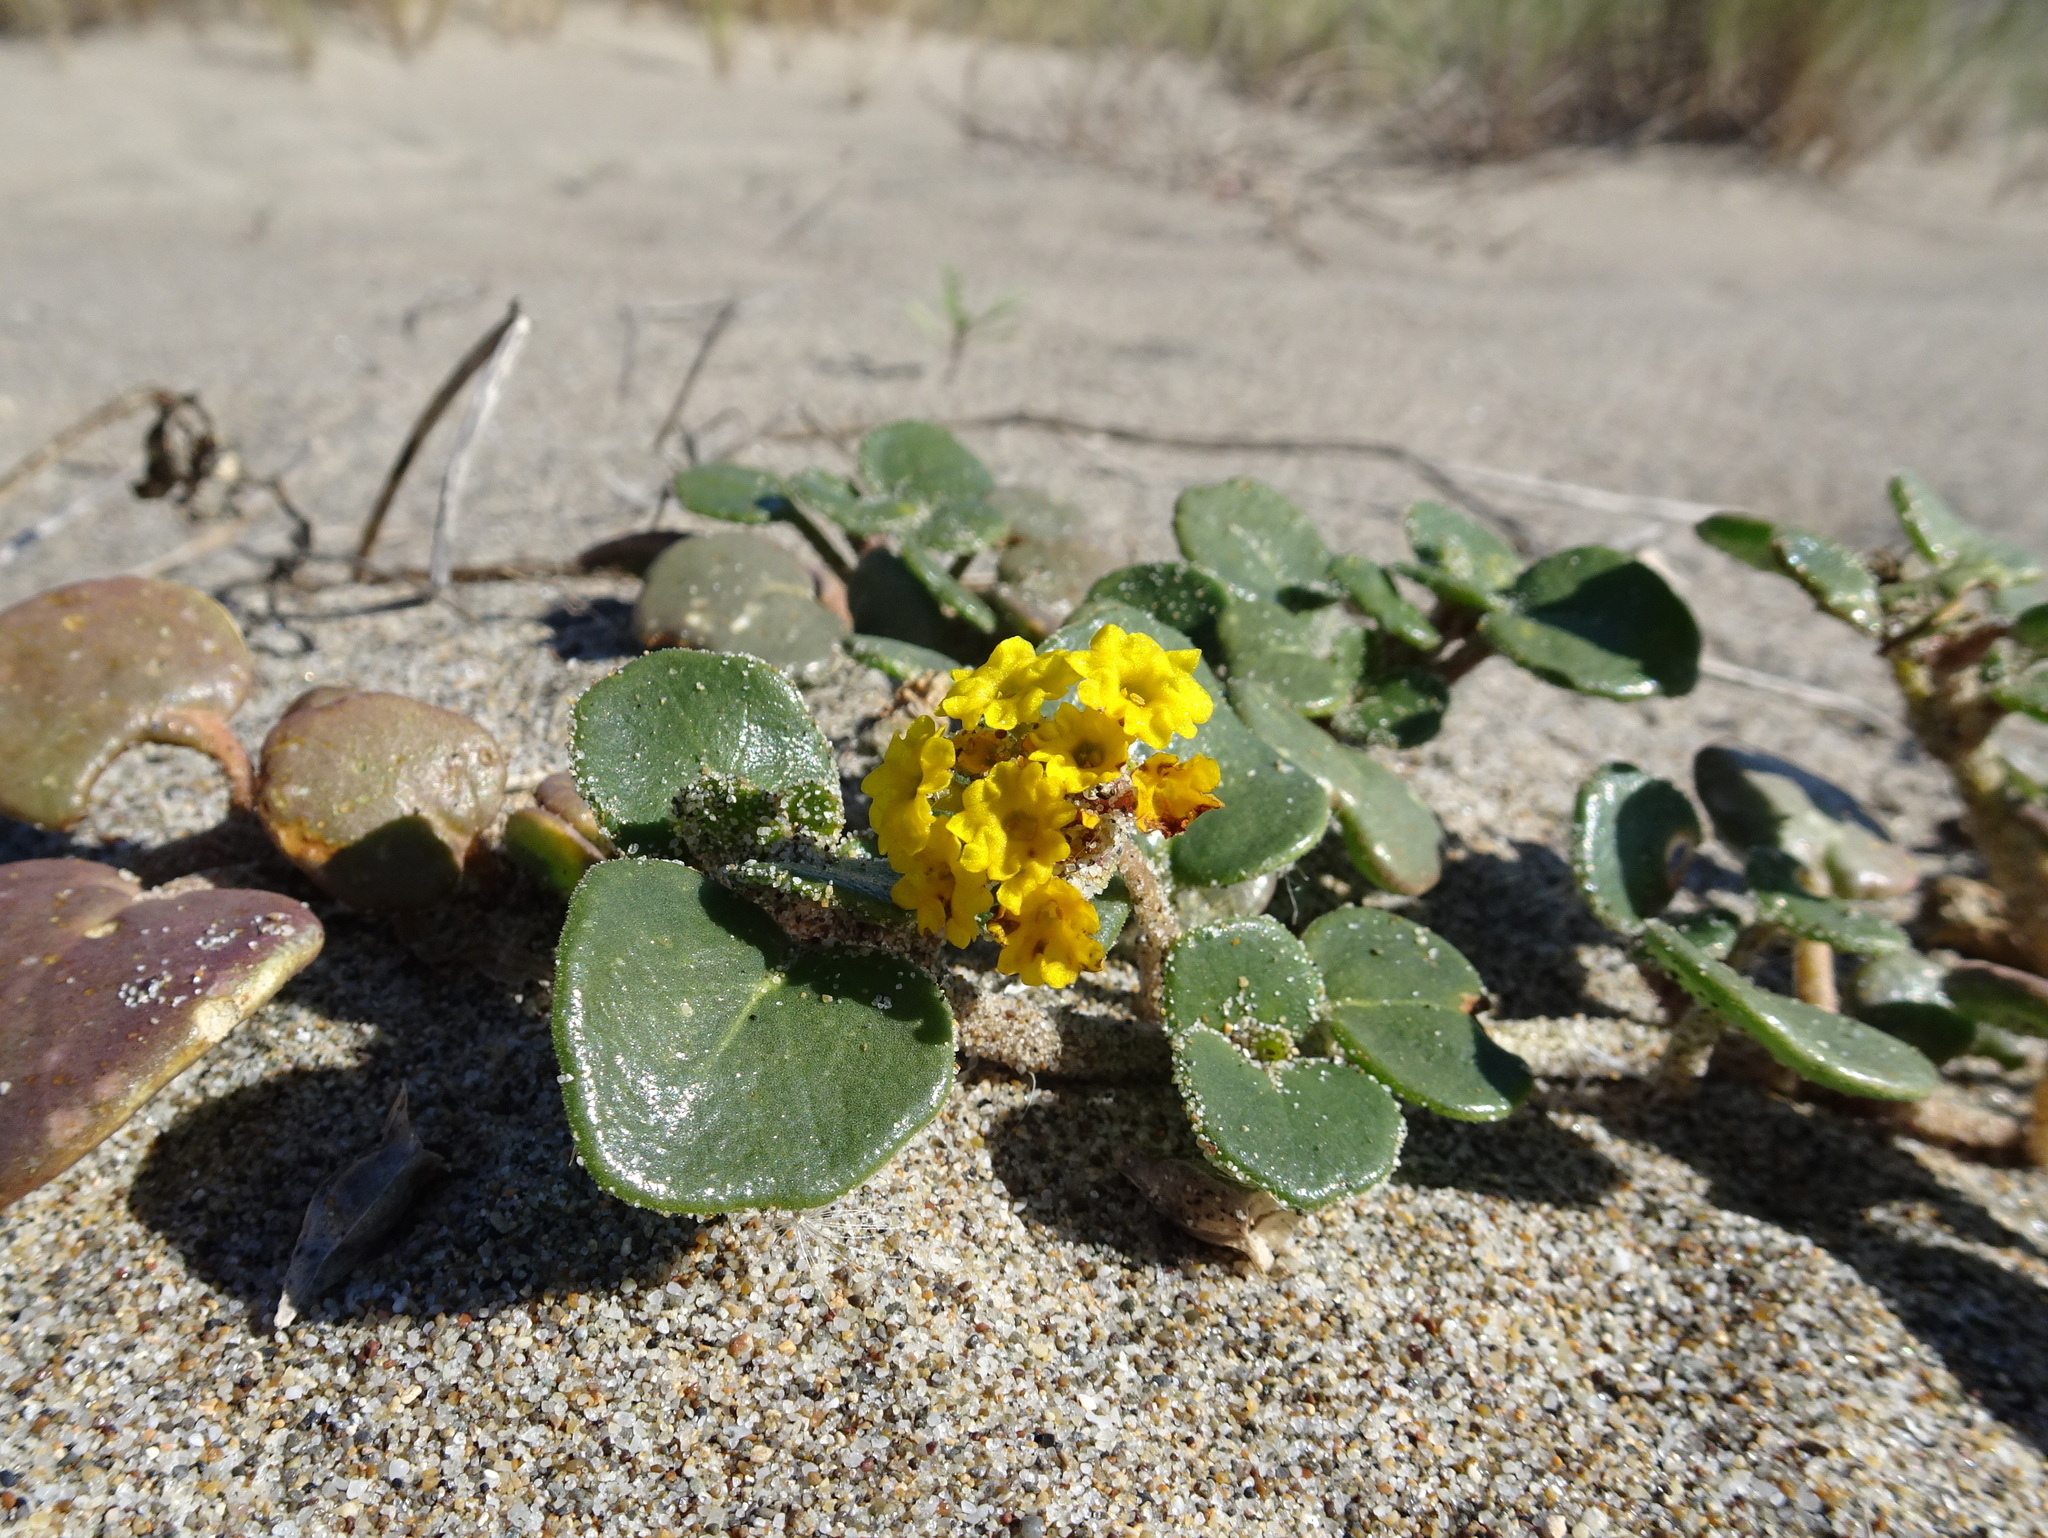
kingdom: Plantae
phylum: Tracheophyta
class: Magnoliopsida
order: Caryophyllales
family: Nyctaginaceae
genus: Abronia
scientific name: Abronia latifolia
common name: Yellow sand-verbena
